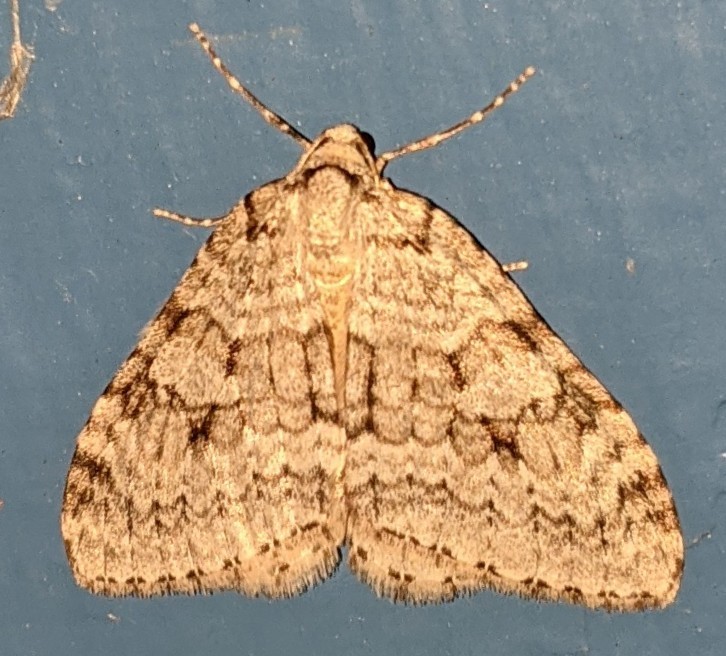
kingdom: Animalia
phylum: Arthropoda
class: Insecta
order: Lepidoptera
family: Geometridae
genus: Epirrita
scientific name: Epirrita autumnata
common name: Autumnal moth
